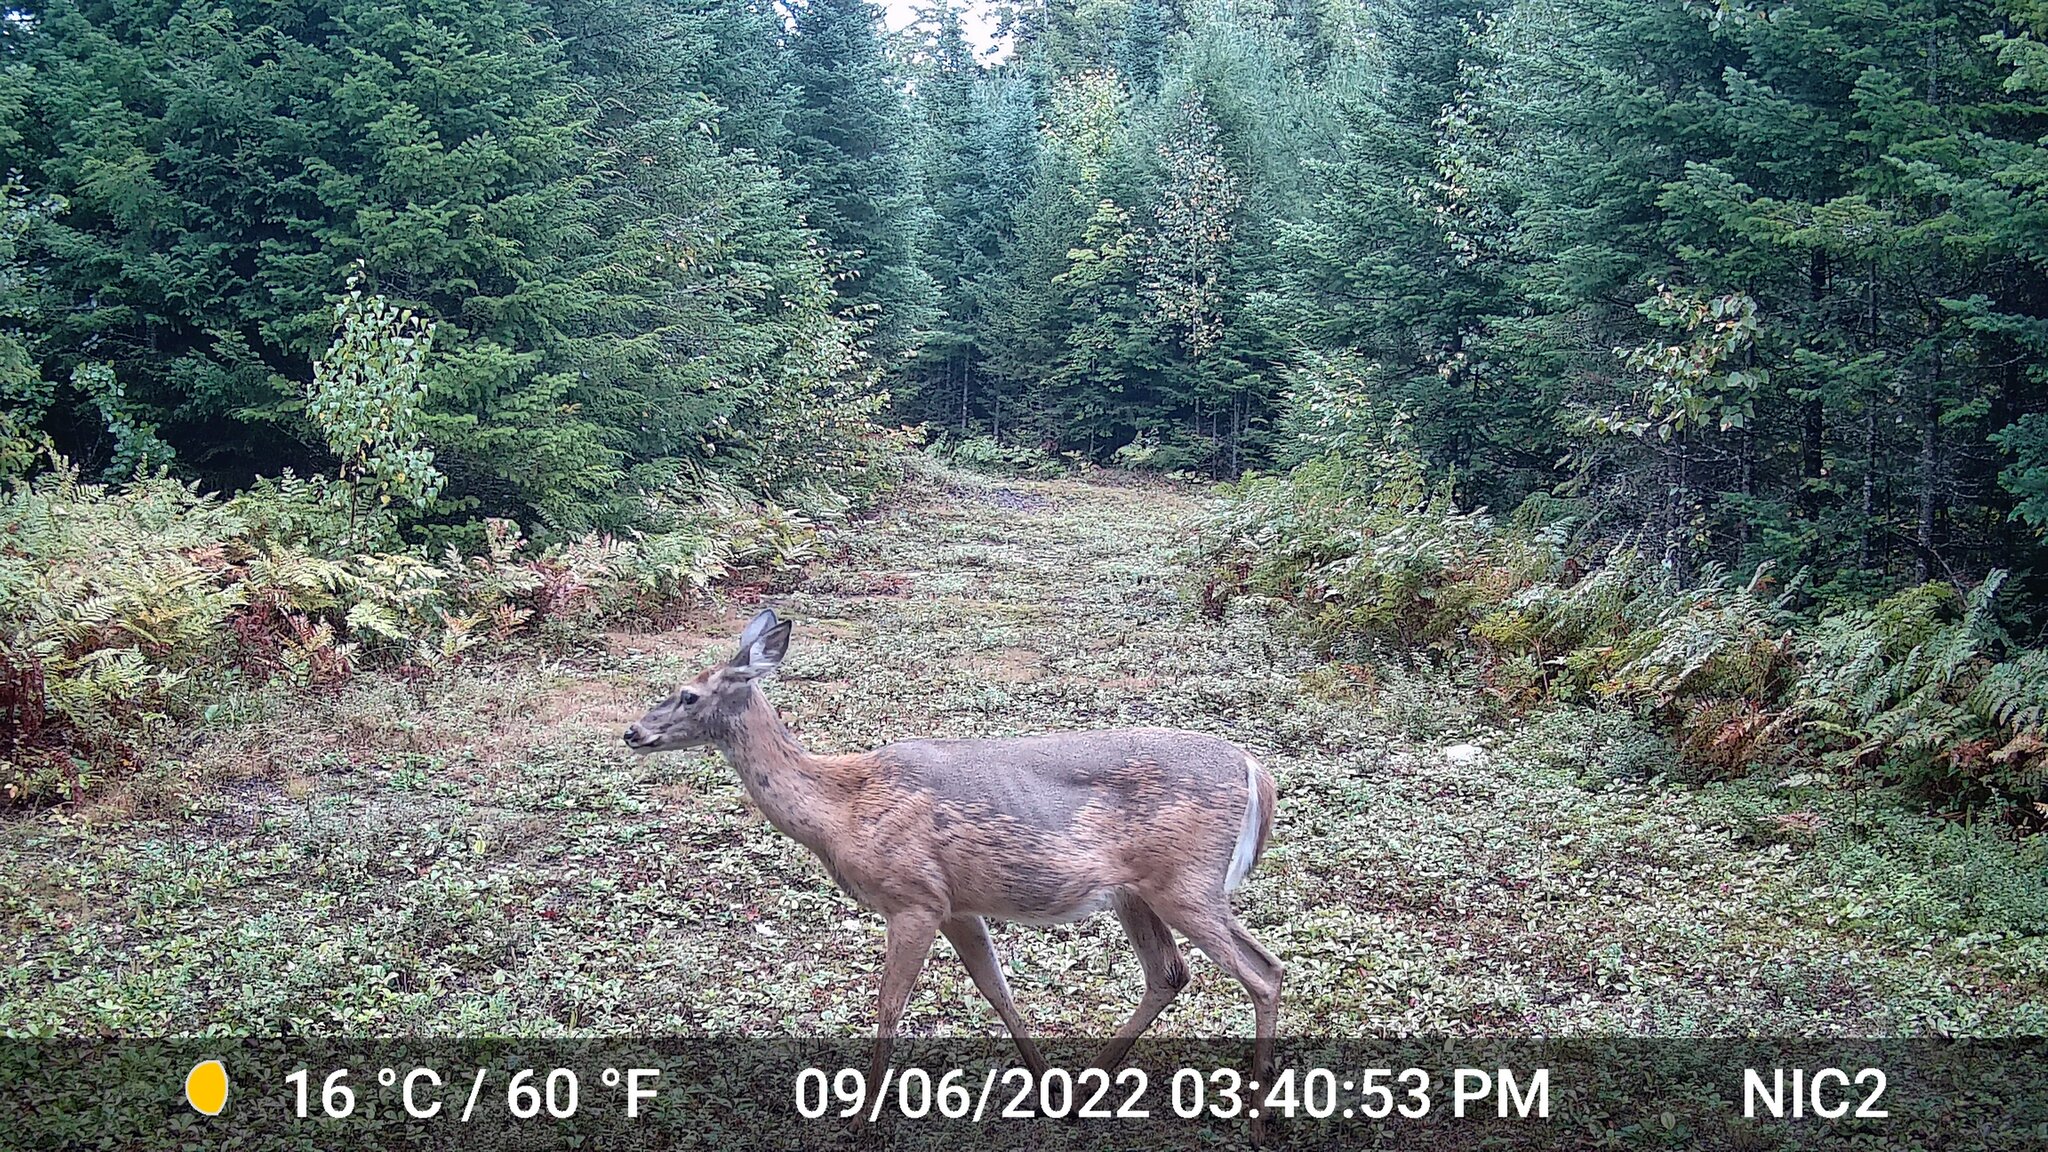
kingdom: Animalia
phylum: Chordata
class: Mammalia
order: Artiodactyla
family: Cervidae
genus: Odocoileus
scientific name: Odocoileus virginianus
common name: White-tailed deer
